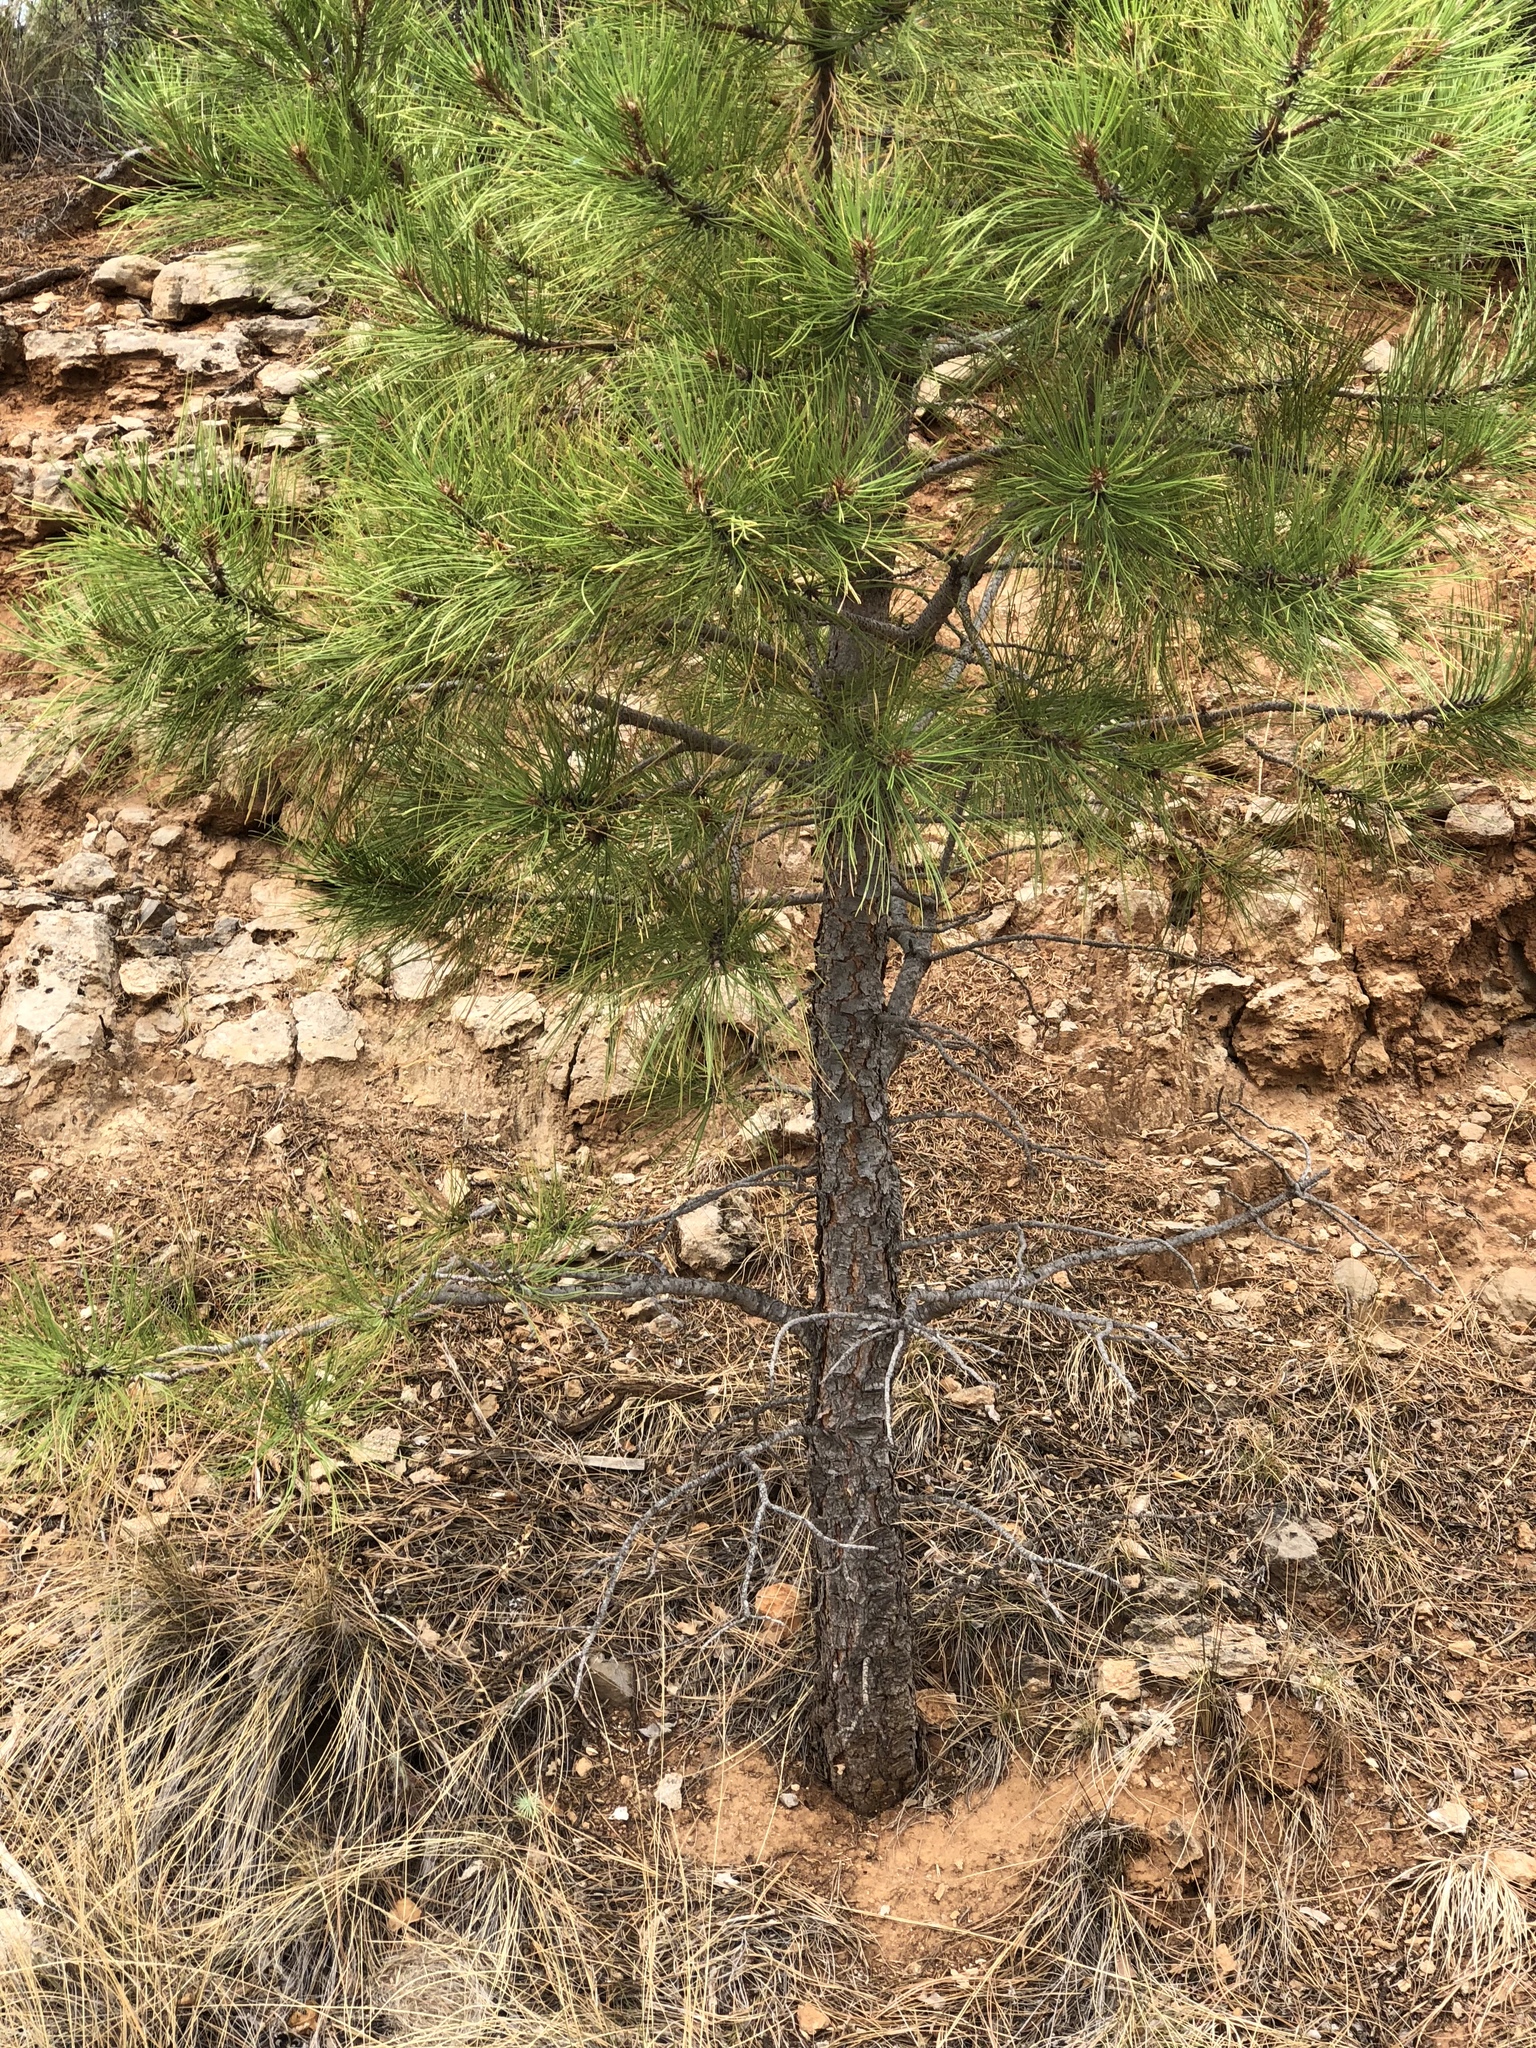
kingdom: Plantae
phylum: Tracheophyta
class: Pinopsida
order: Pinales
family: Pinaceae
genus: Pinus
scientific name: Pinus ponderosa
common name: Western yellow-pine
